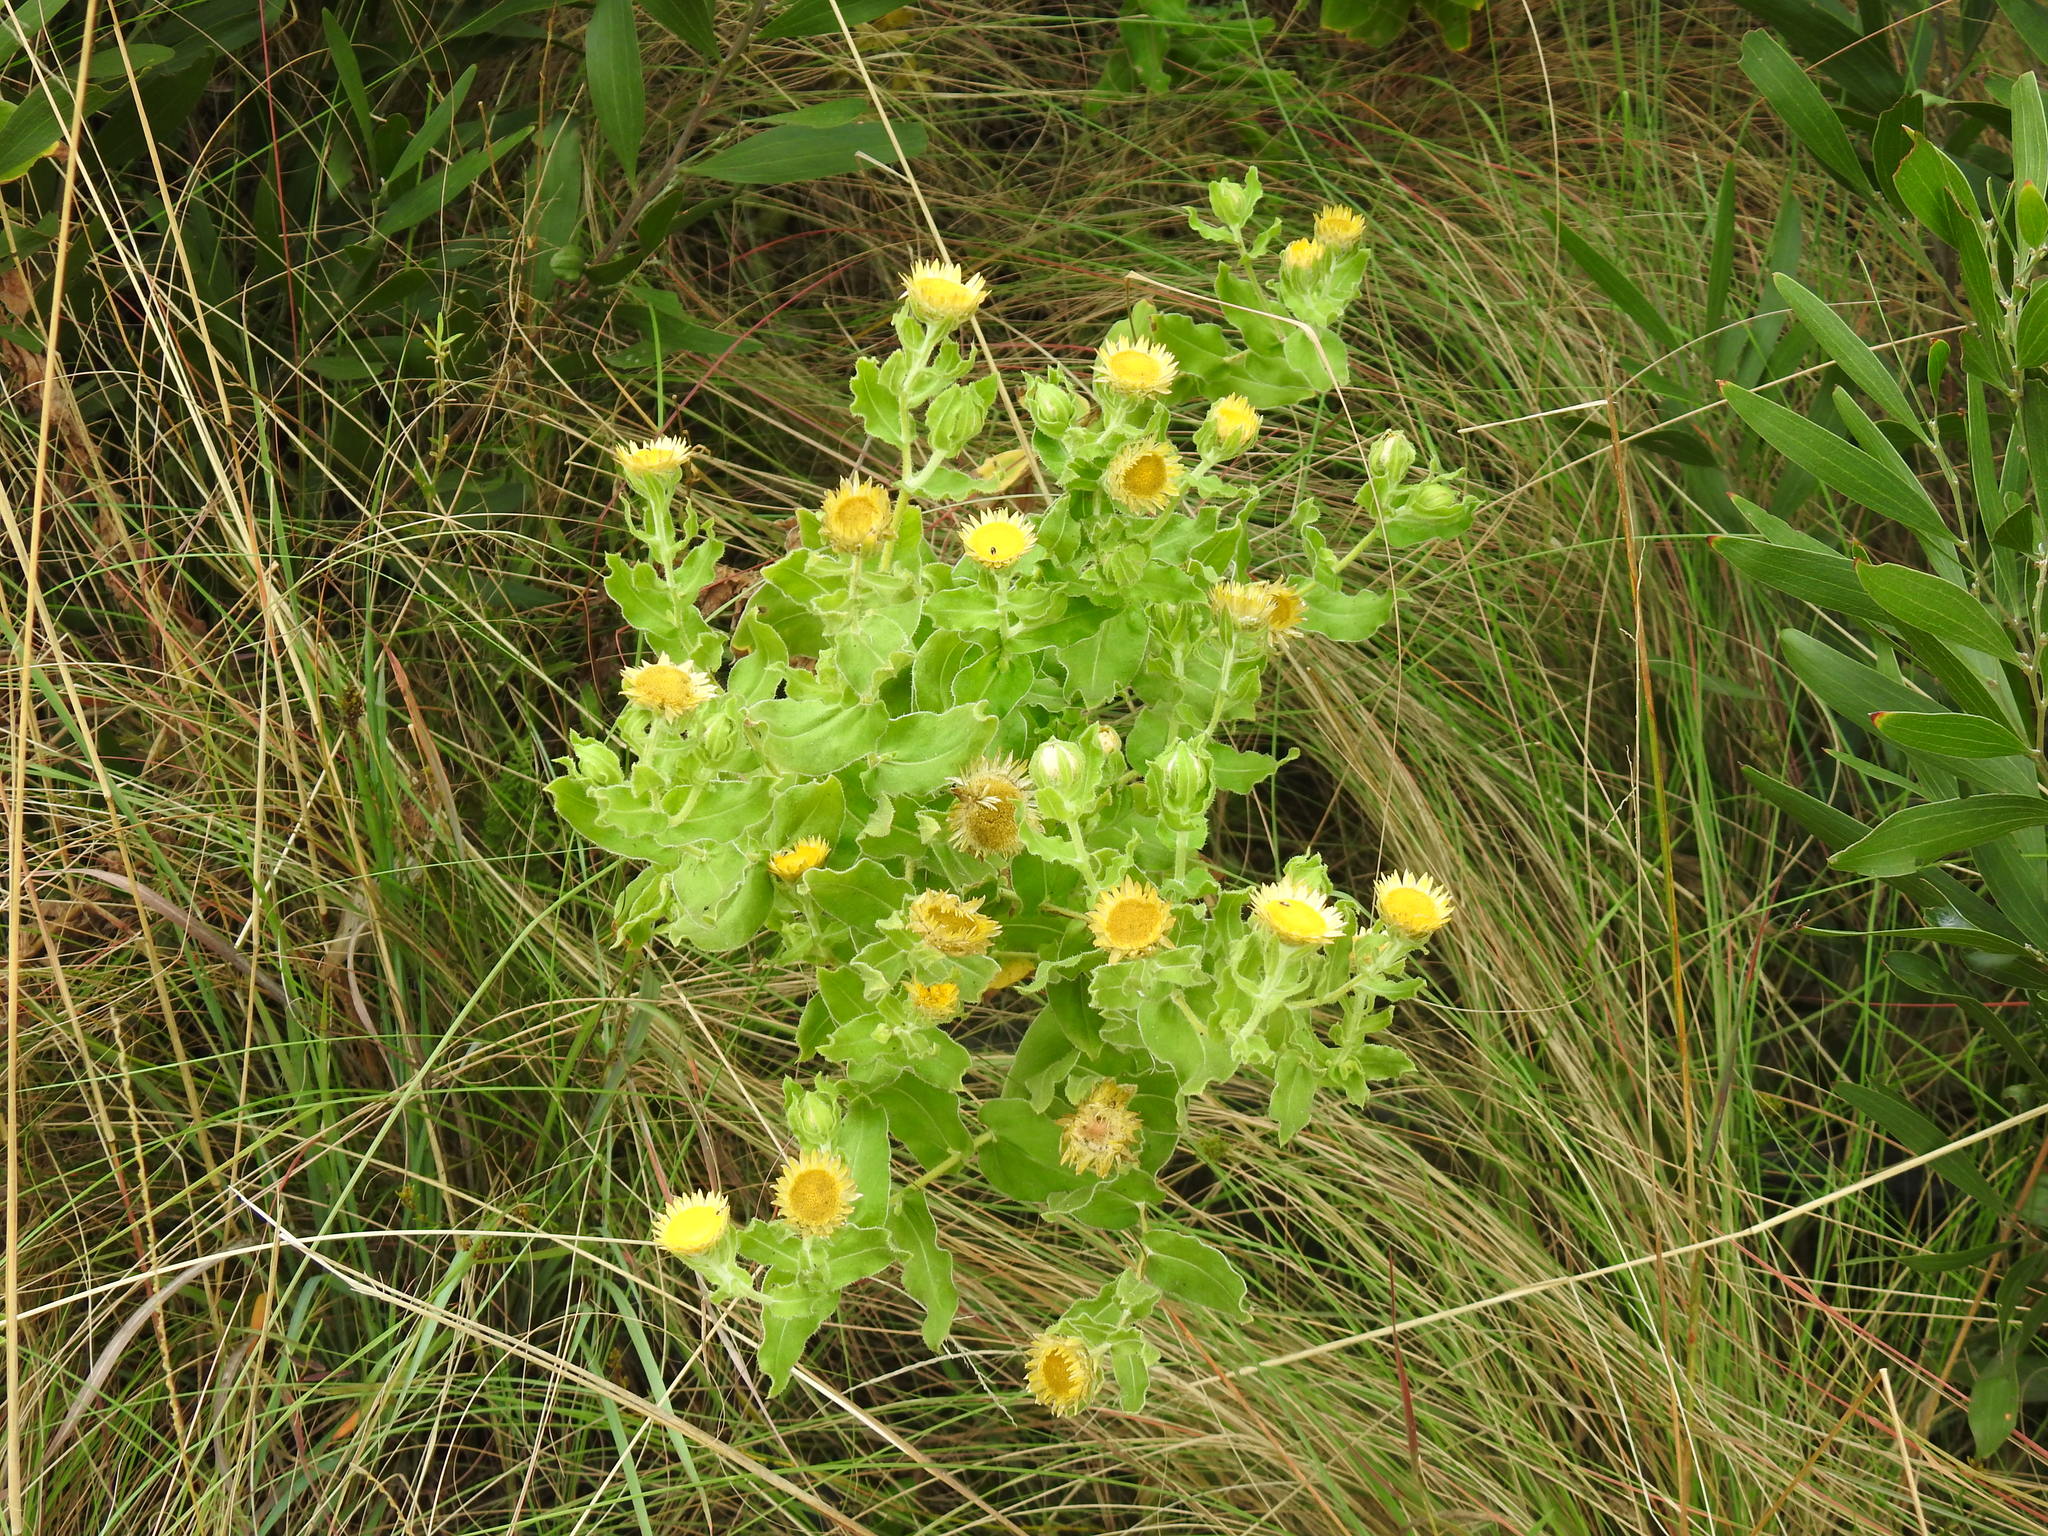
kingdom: Plantae
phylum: Tracheophyta
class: Magnoliopsida
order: Asterales
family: Asteraceae
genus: Helichrysum
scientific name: Helichrysum setosum
